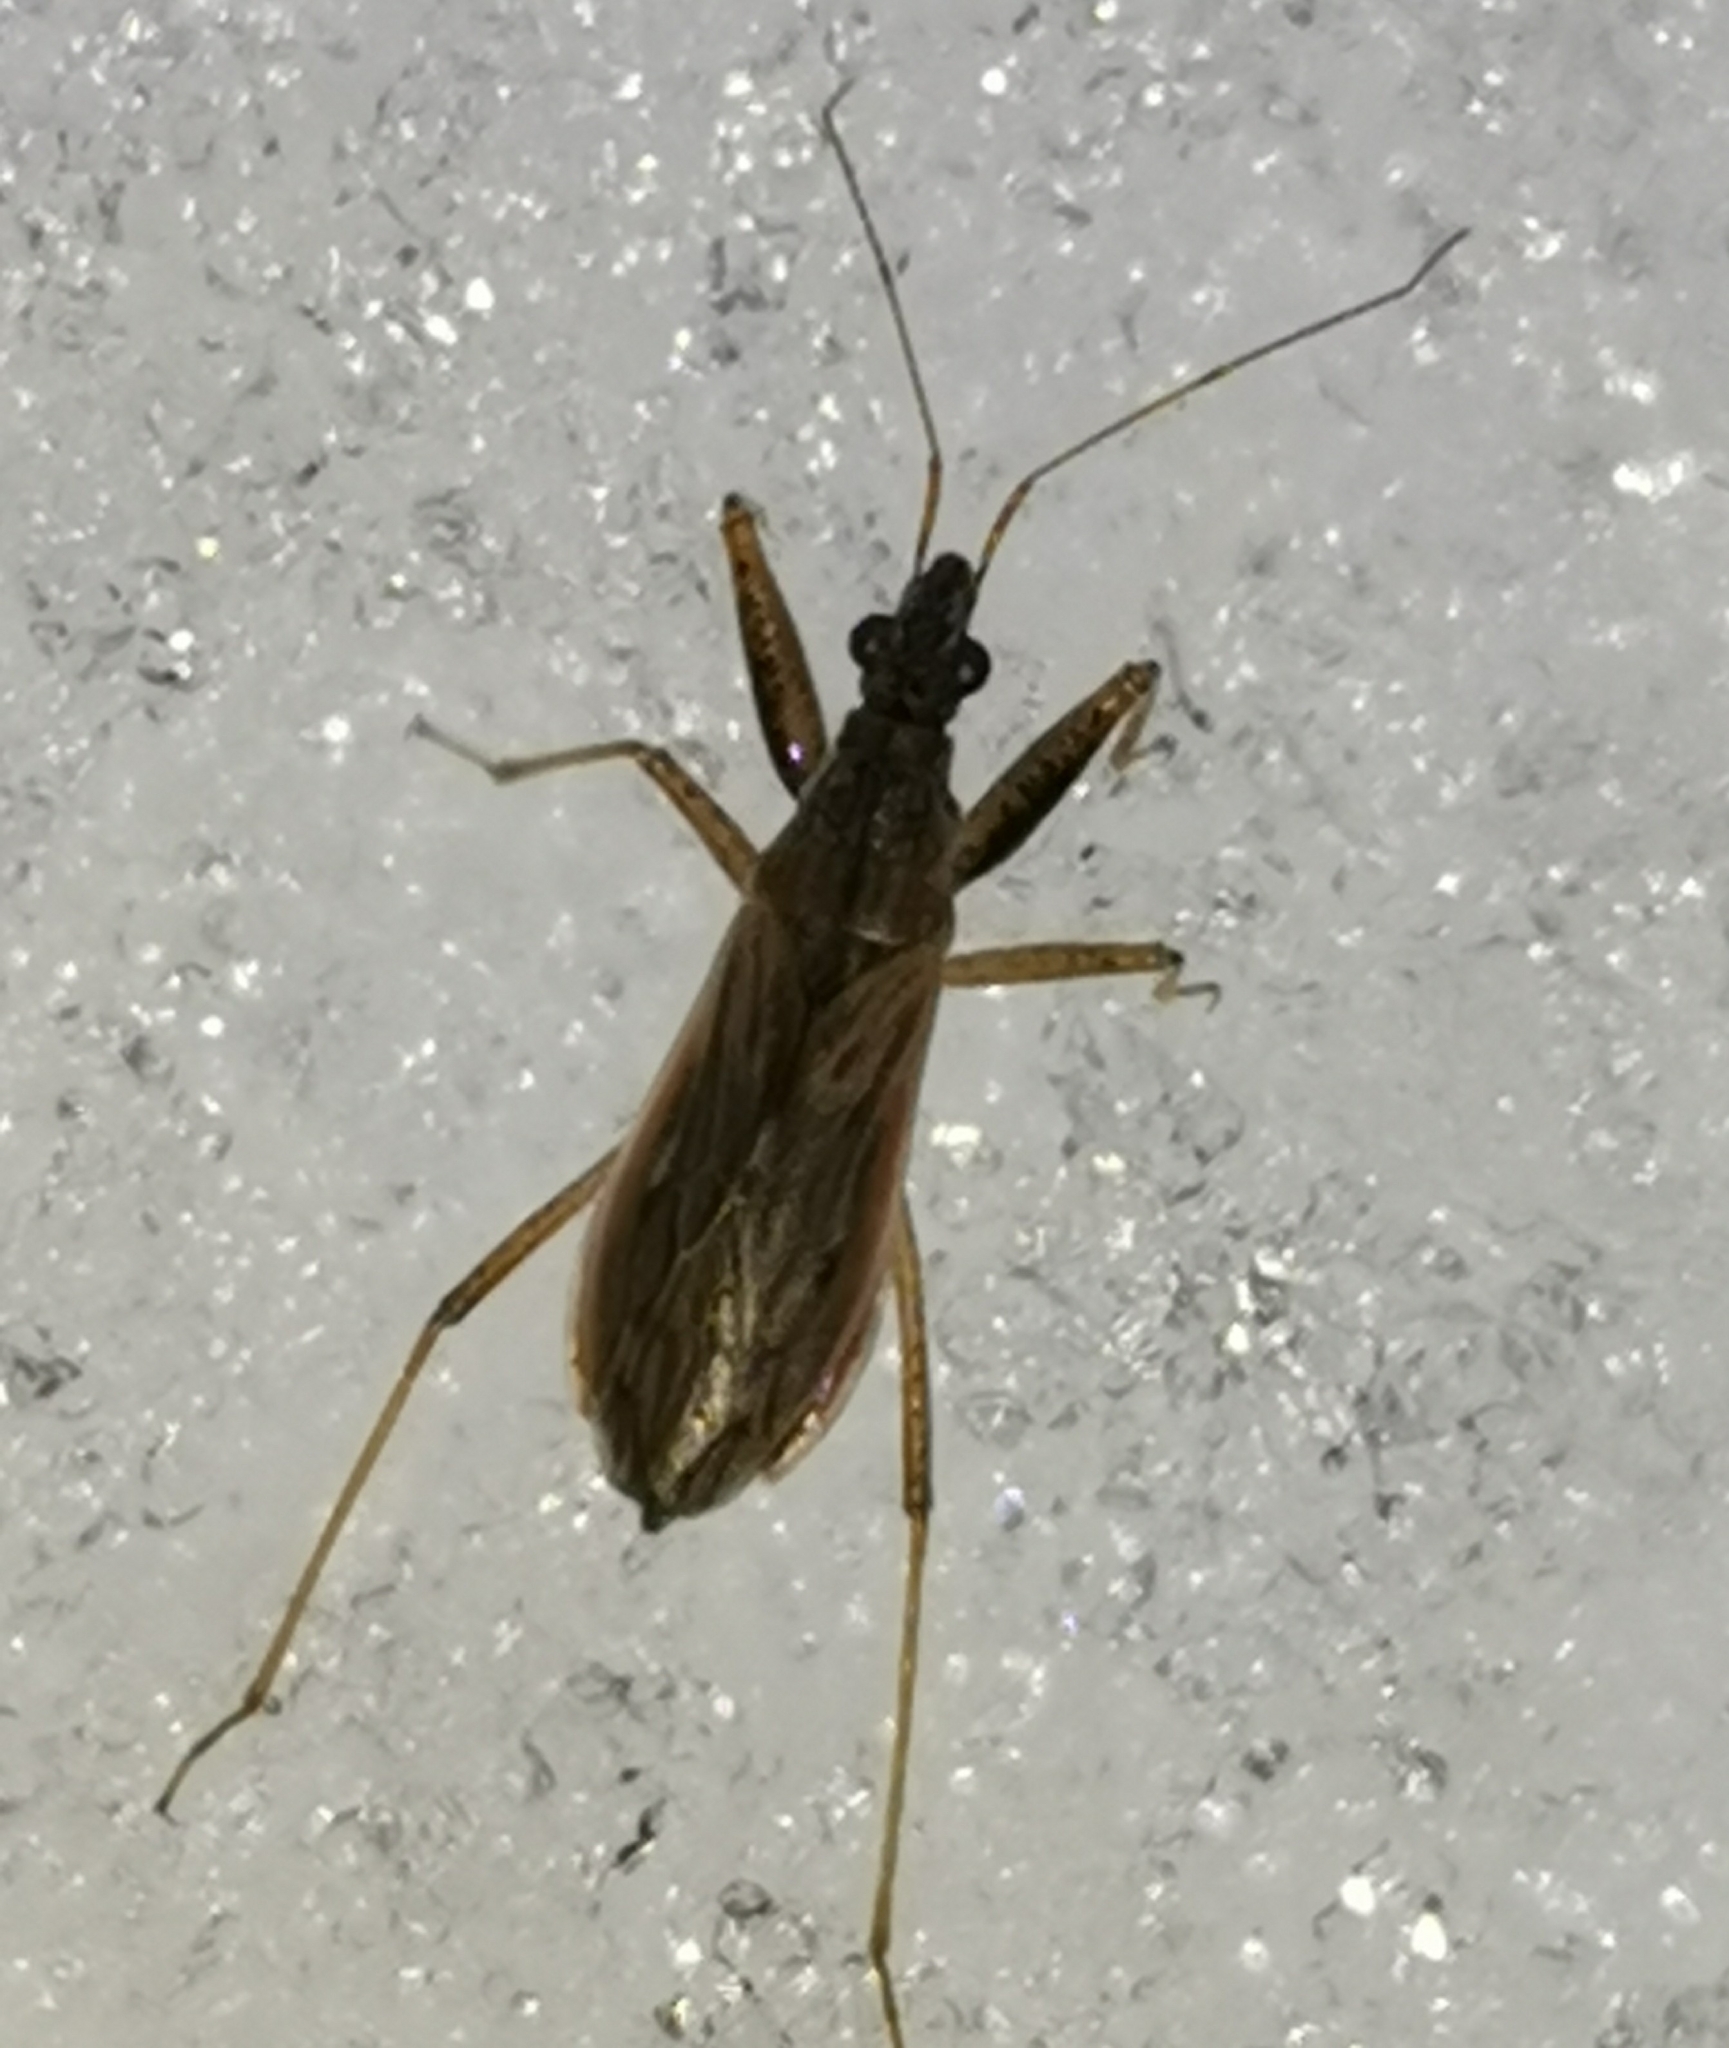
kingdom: Animalia
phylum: Arthropoda
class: Insecta
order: Hemiptera
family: Nabidae
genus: Nabis
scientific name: Nabis brevis
